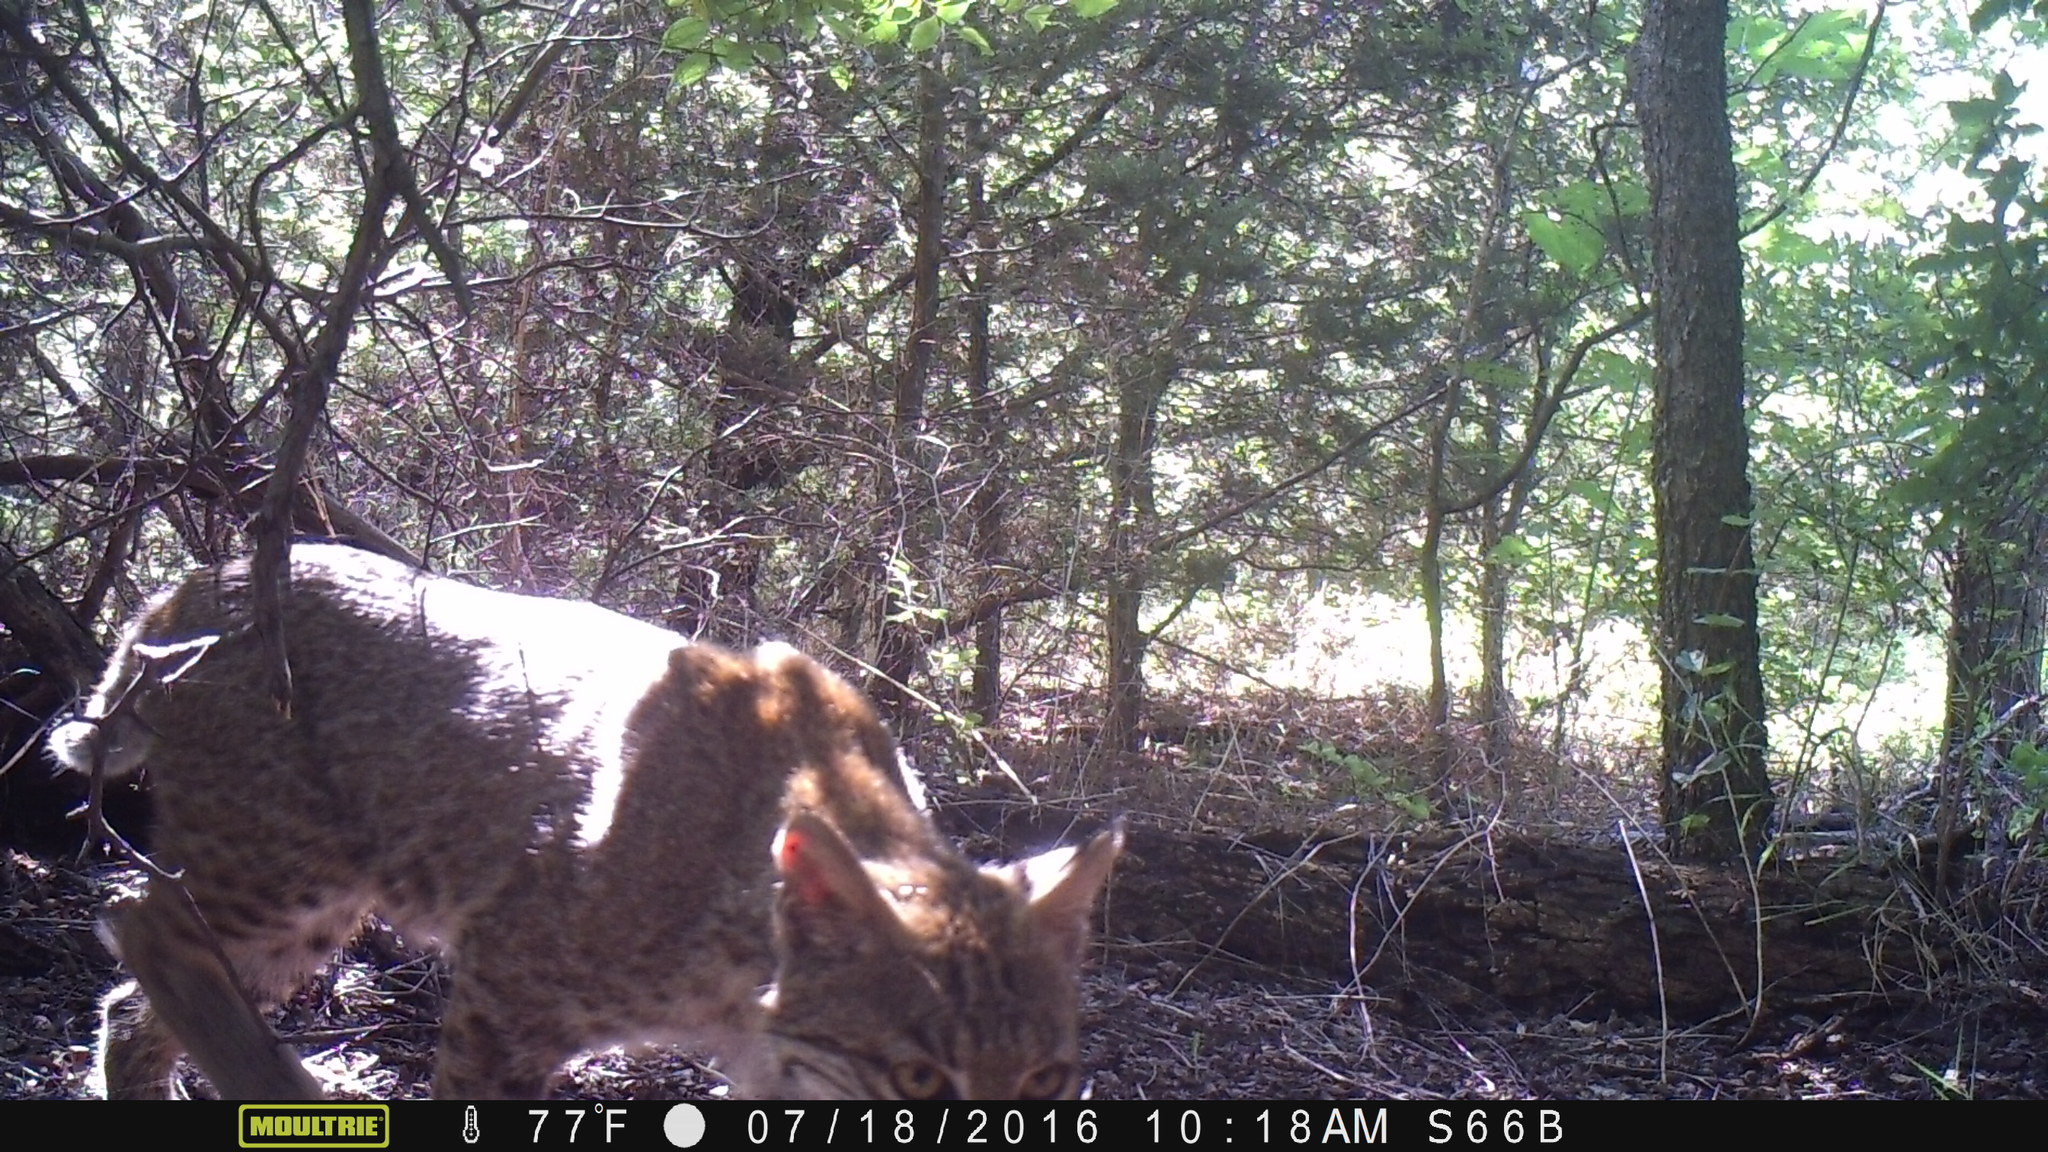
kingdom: Animalia
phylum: Chordata
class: Mammalia
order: Carnivora
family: Felidae
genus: Lynx
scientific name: Lynx rufus
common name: Bobcat
